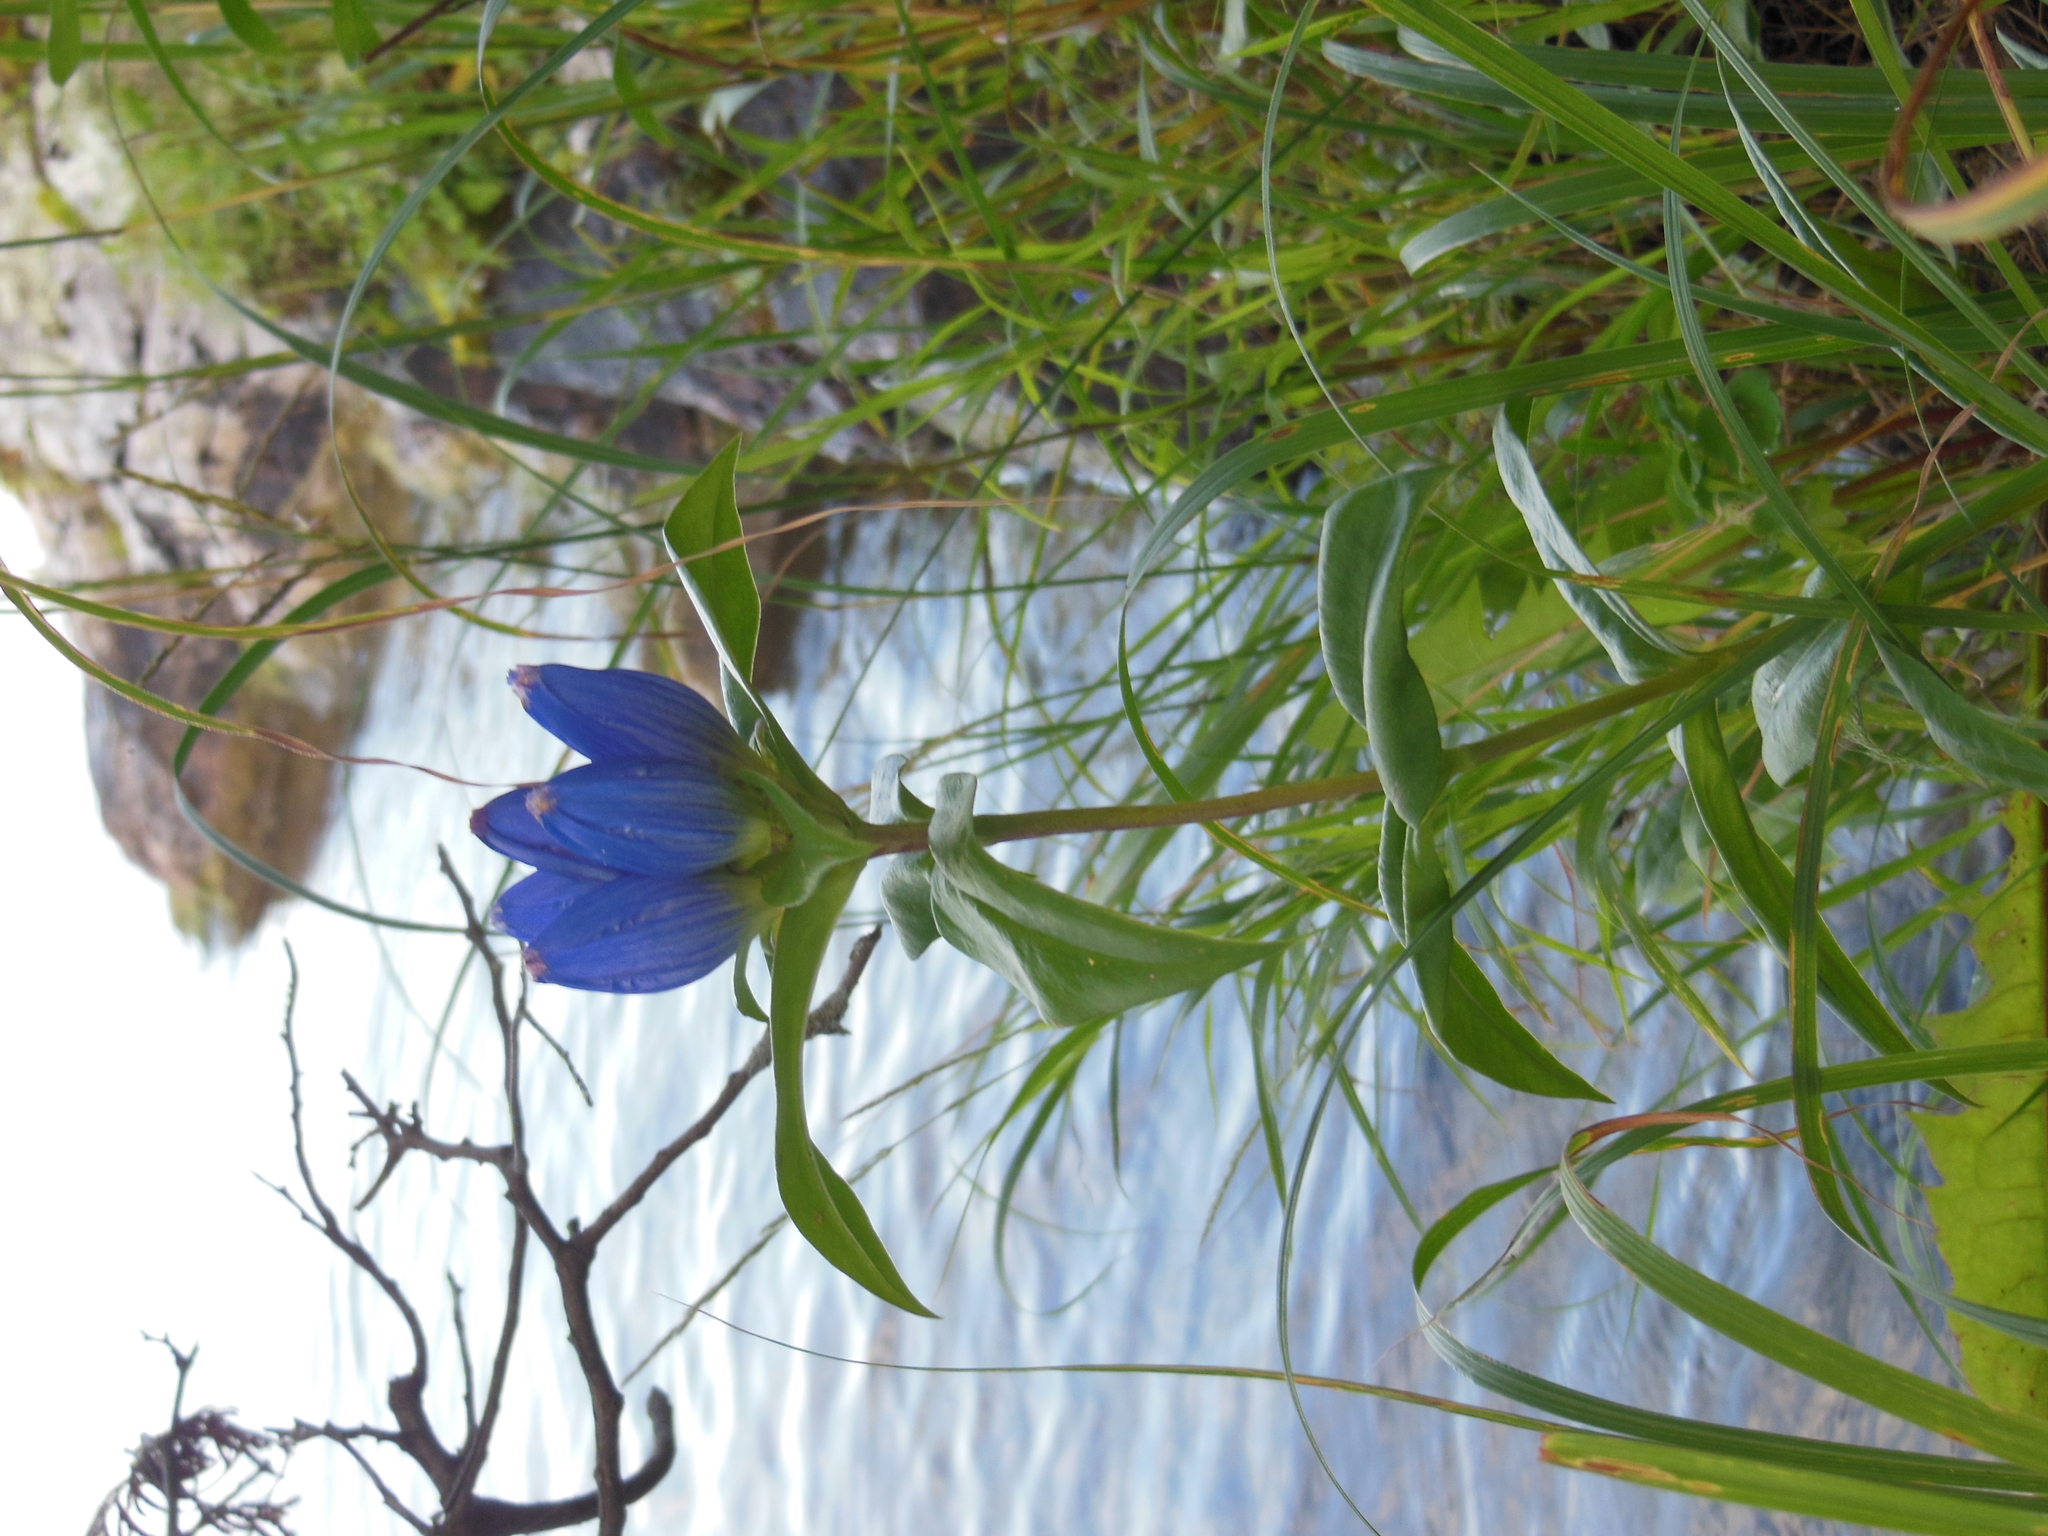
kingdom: Plantae
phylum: Tracheophyta
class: Magnoliopsida
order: Gentianales
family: Gentianaceae
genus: Gentiana
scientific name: Gentiana andrewsii
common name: Bottle gentian
